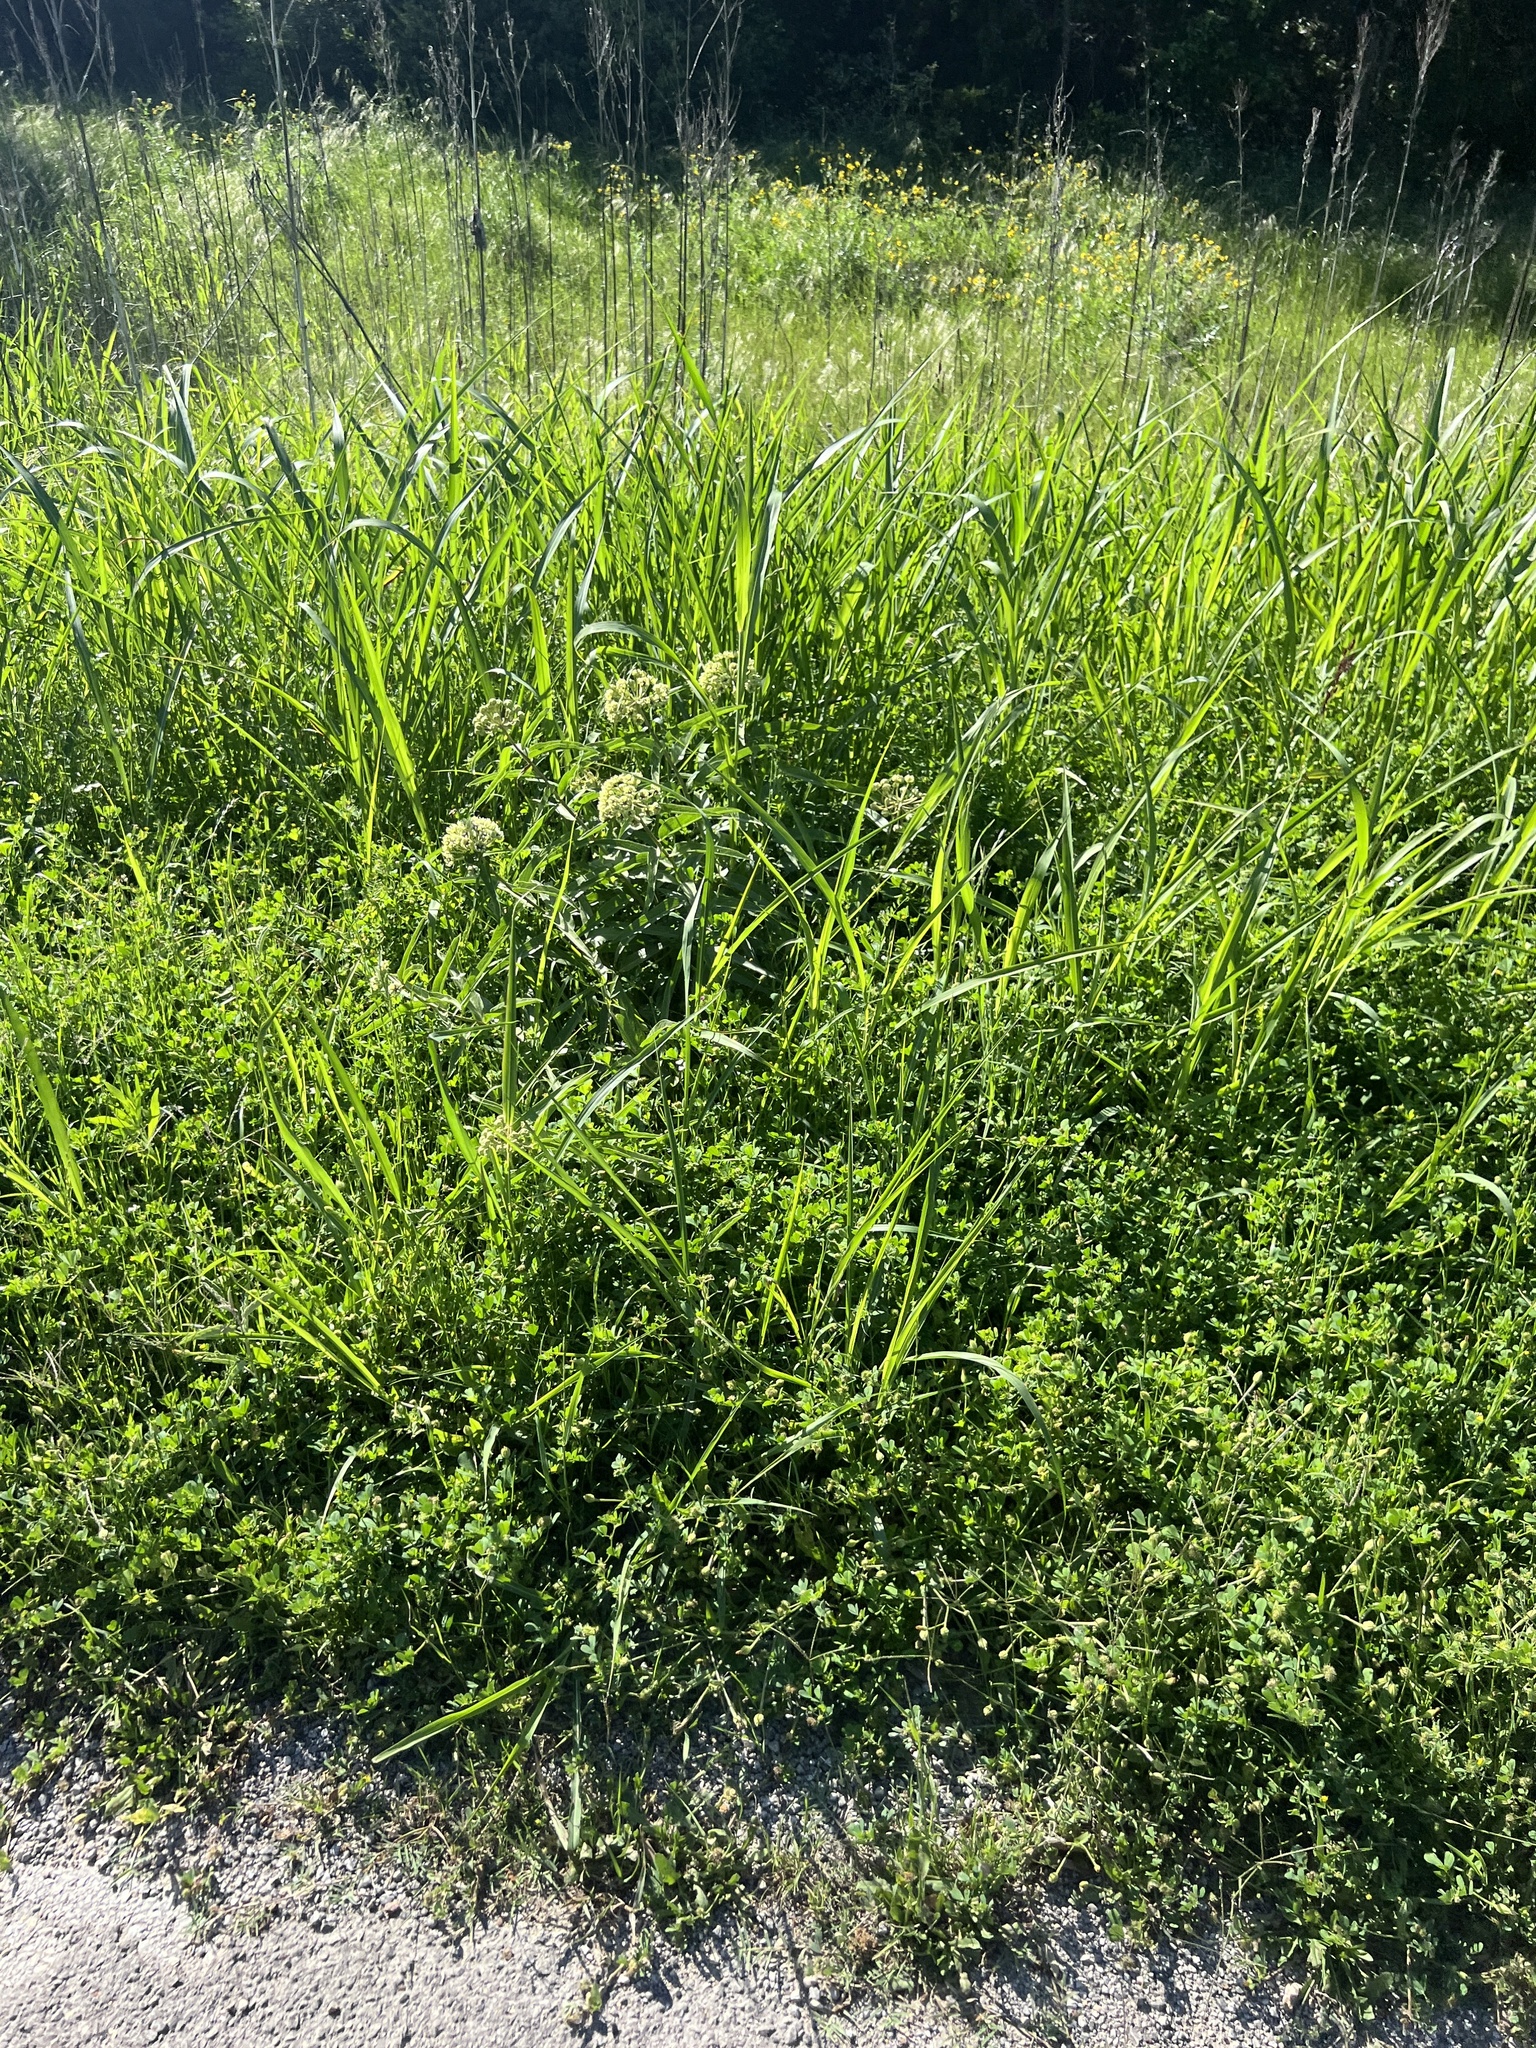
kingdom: Plantae
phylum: Tracheophyta
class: Magnoliopsida
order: Gentianales
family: Apocynaceae
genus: Asclepias
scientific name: Asclepias asperula
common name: Antelope horns
